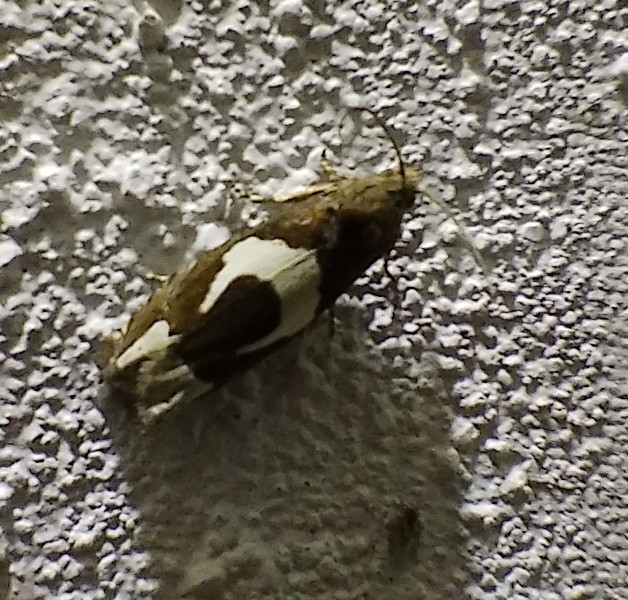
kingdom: Animalia
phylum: Arthropoda
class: Insecta
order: Lepidoptera
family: Tortricidae
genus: Epiblema
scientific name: Epiblema foenella
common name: White-foot bell
